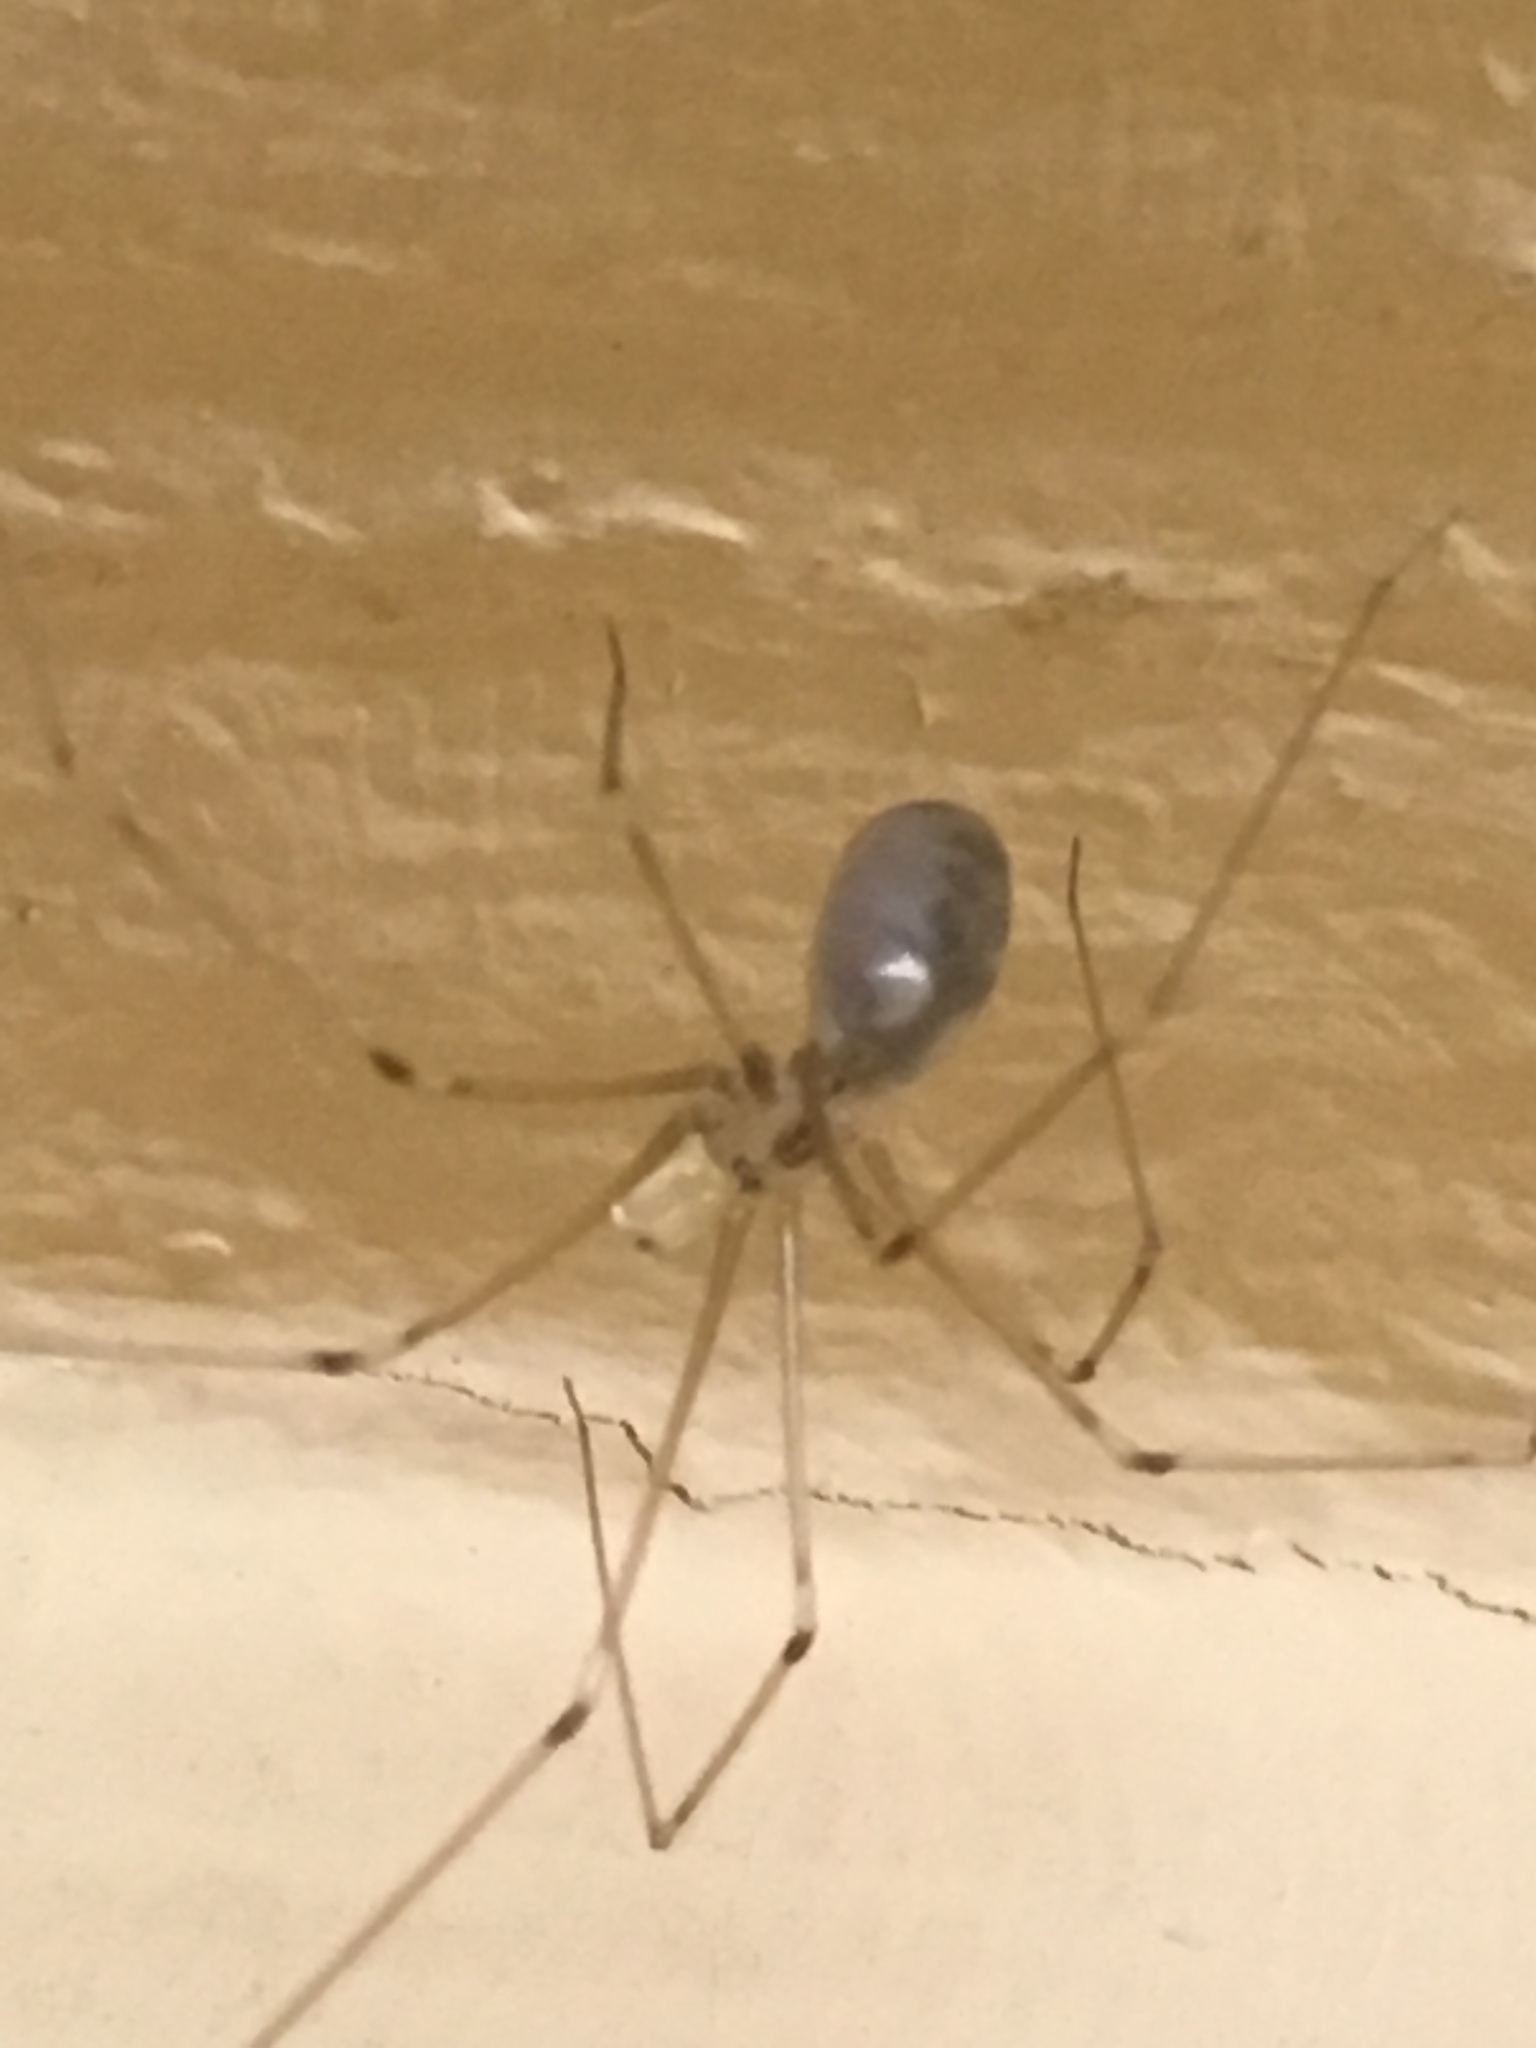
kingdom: Animalia
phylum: Arthropoda
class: Arachnida
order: Araneae
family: Pholcidae
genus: Pholcus
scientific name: Pholcus phalangioides
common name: Longbodied cellar spider
